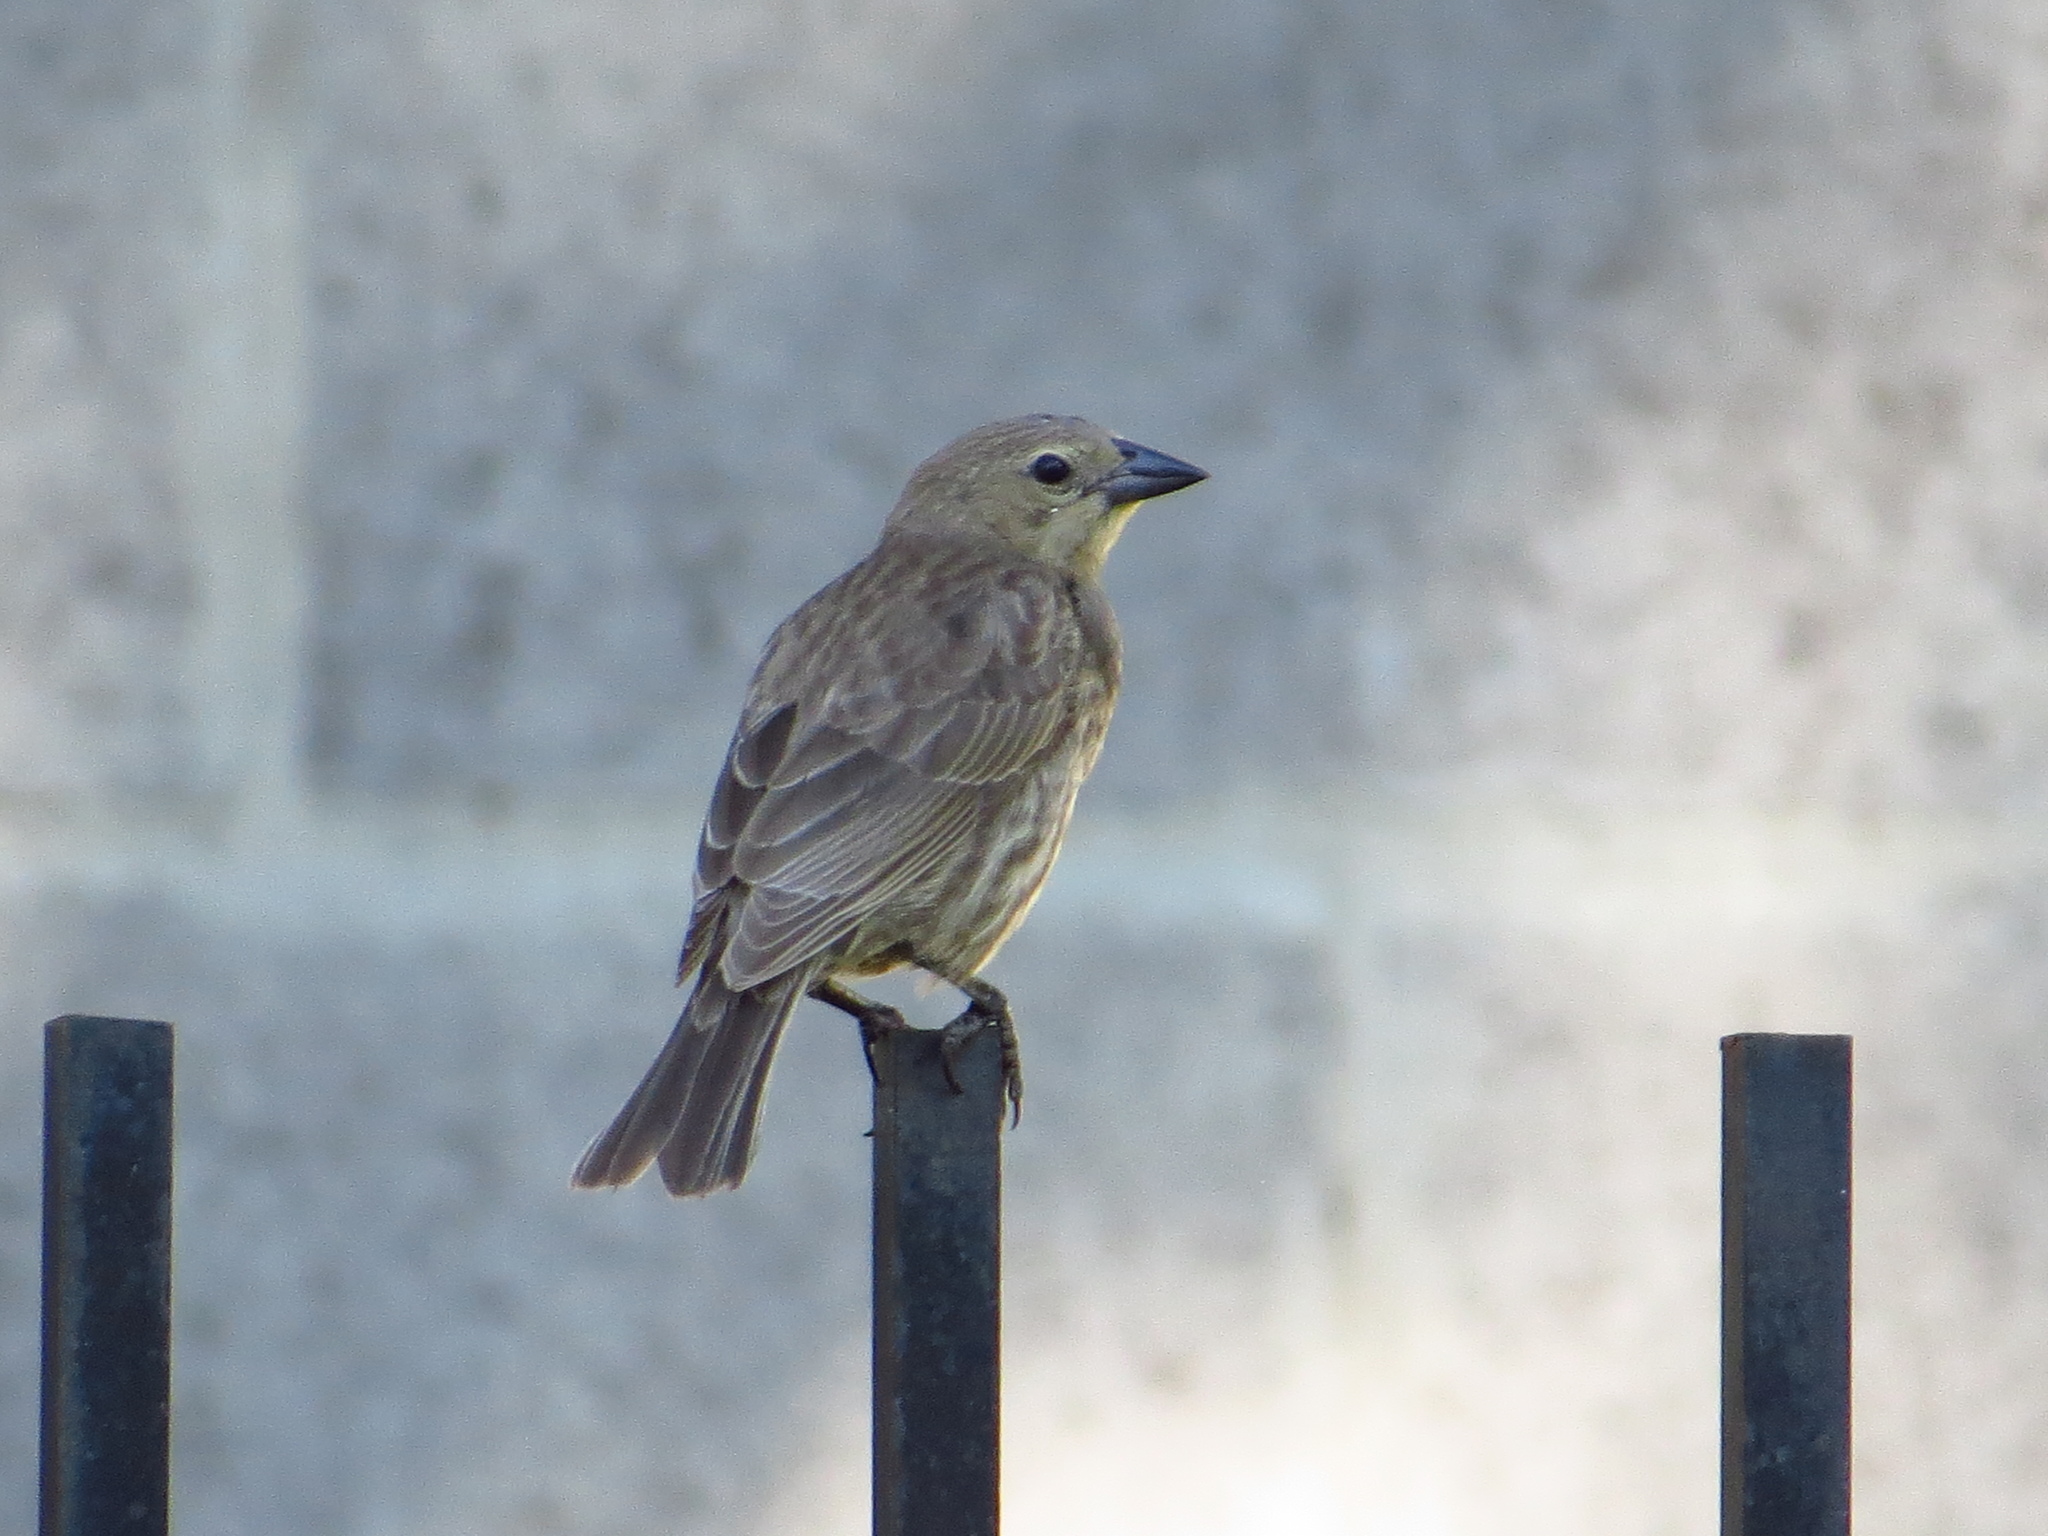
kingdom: Animalia
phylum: Chordata
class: Aves
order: Passeriformes
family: Icteridae
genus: Molothrus
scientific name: Molothrus bonariensis
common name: Shiny cowbird
